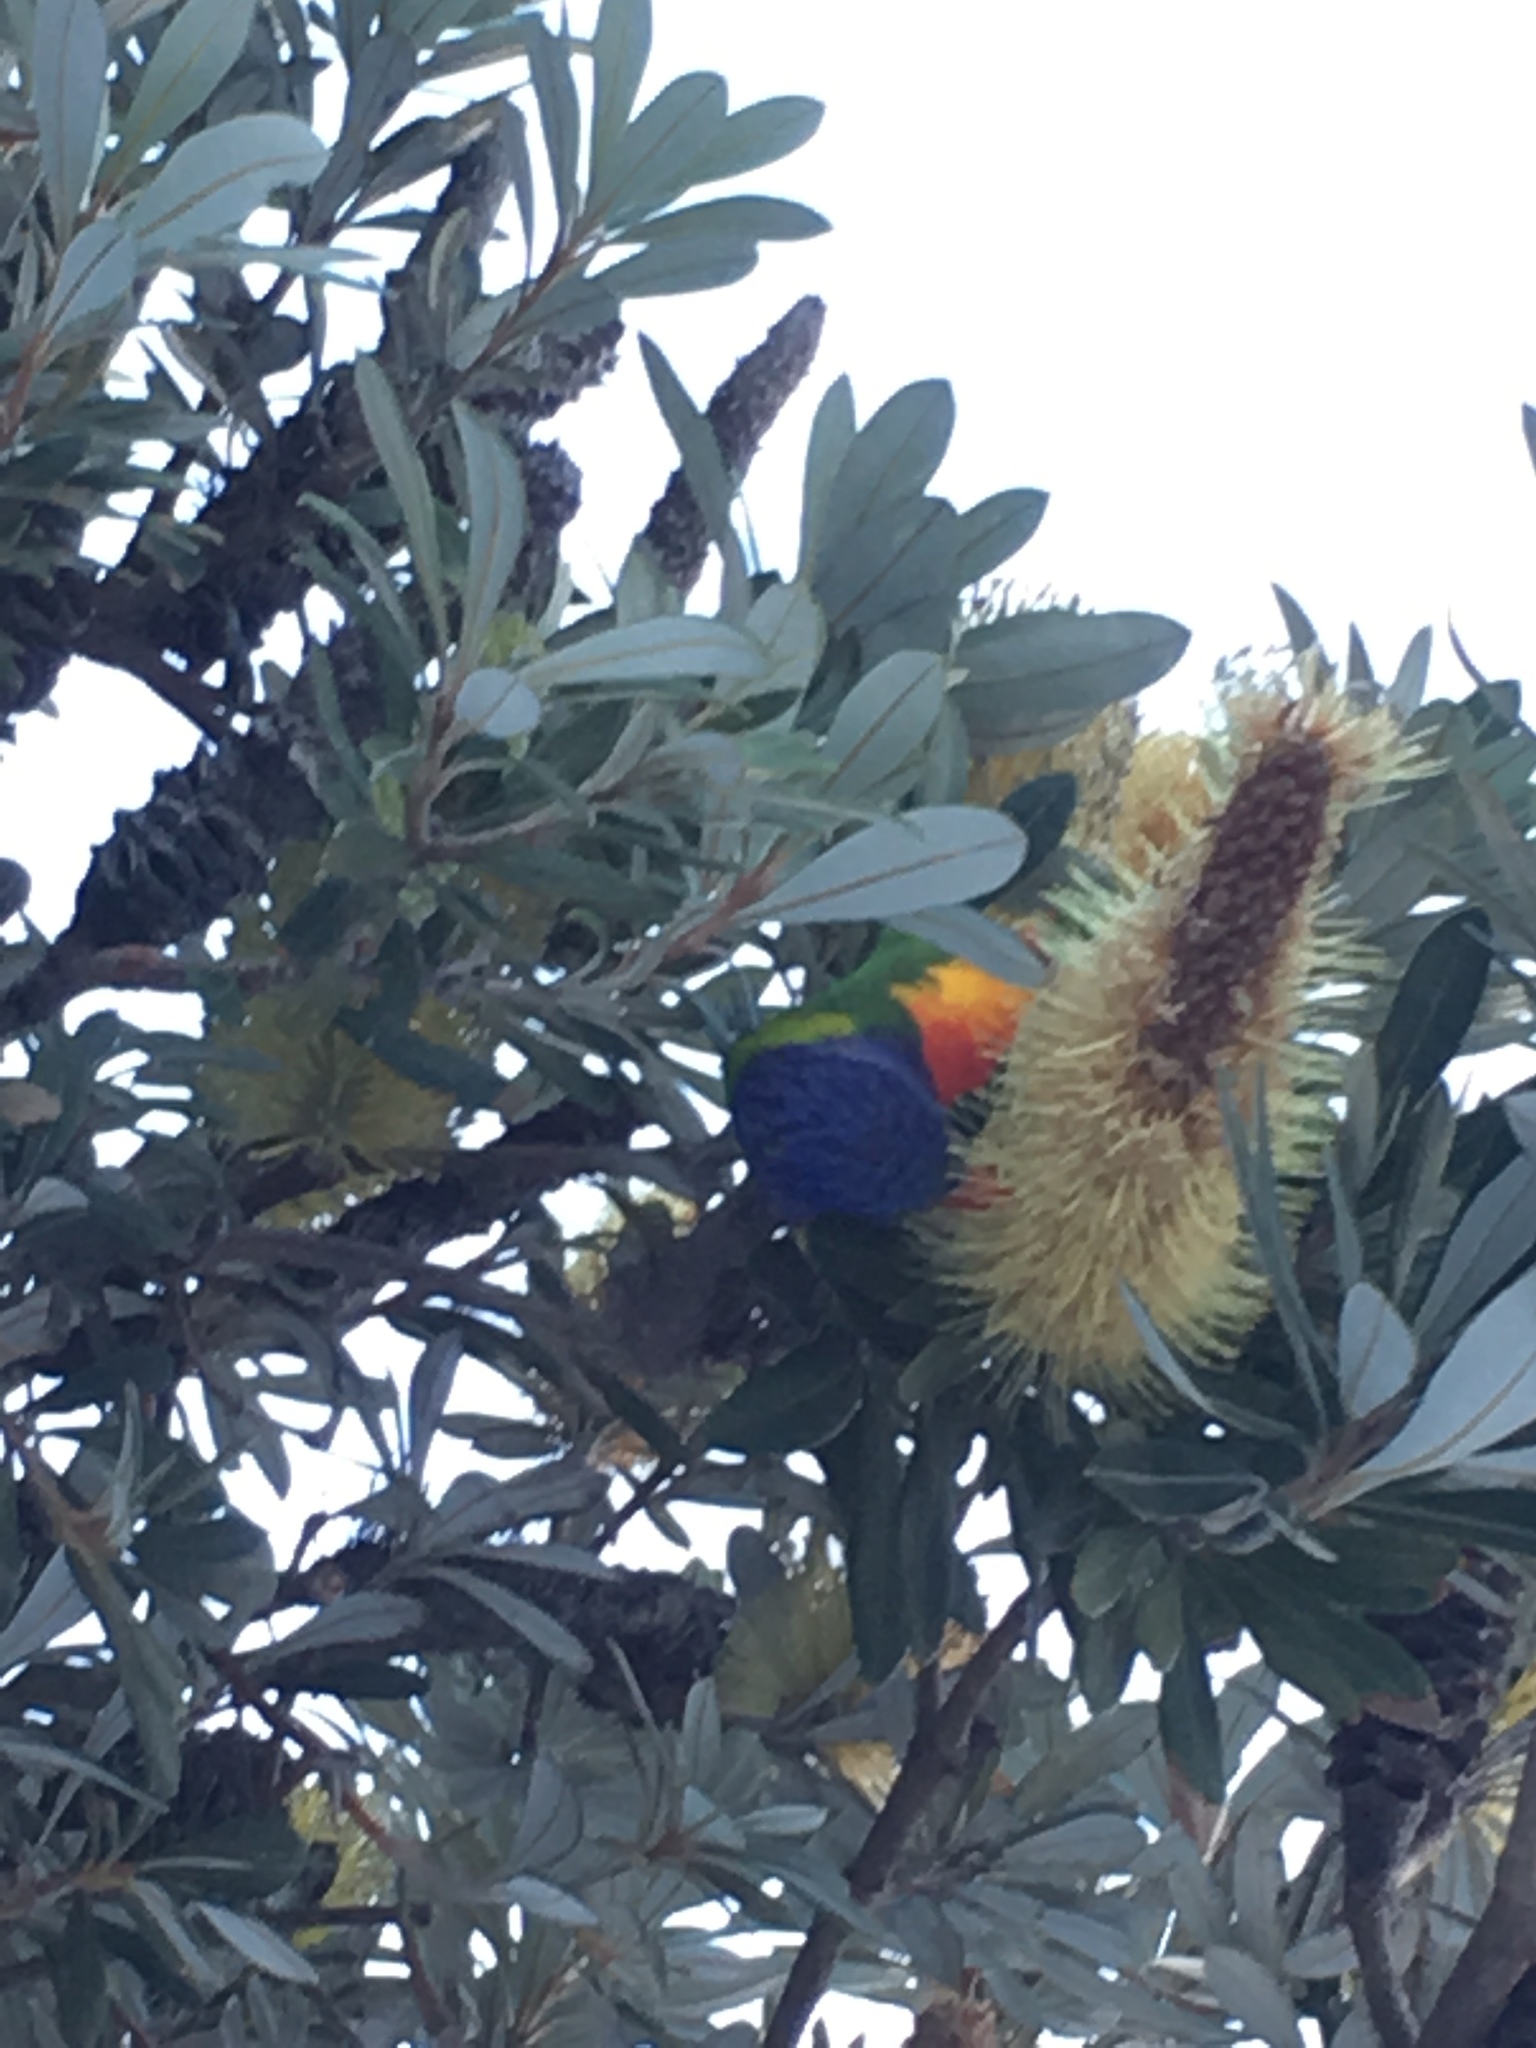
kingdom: Animalia
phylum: Chordata
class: Aves
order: Psittaciformes
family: Psittacidae
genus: Trichoglossus
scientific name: Trichoglossus haematodus
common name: Coconut lorikeet
